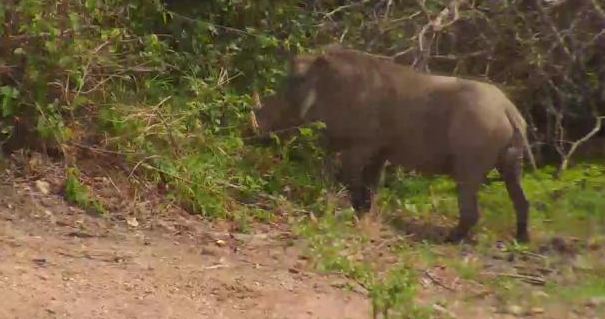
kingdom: Animalia
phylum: Chordata
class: Mammalia
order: Artiodactyla
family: Suidae
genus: Phacochoerus
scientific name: Phacochoerus africanus
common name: Common warthog
